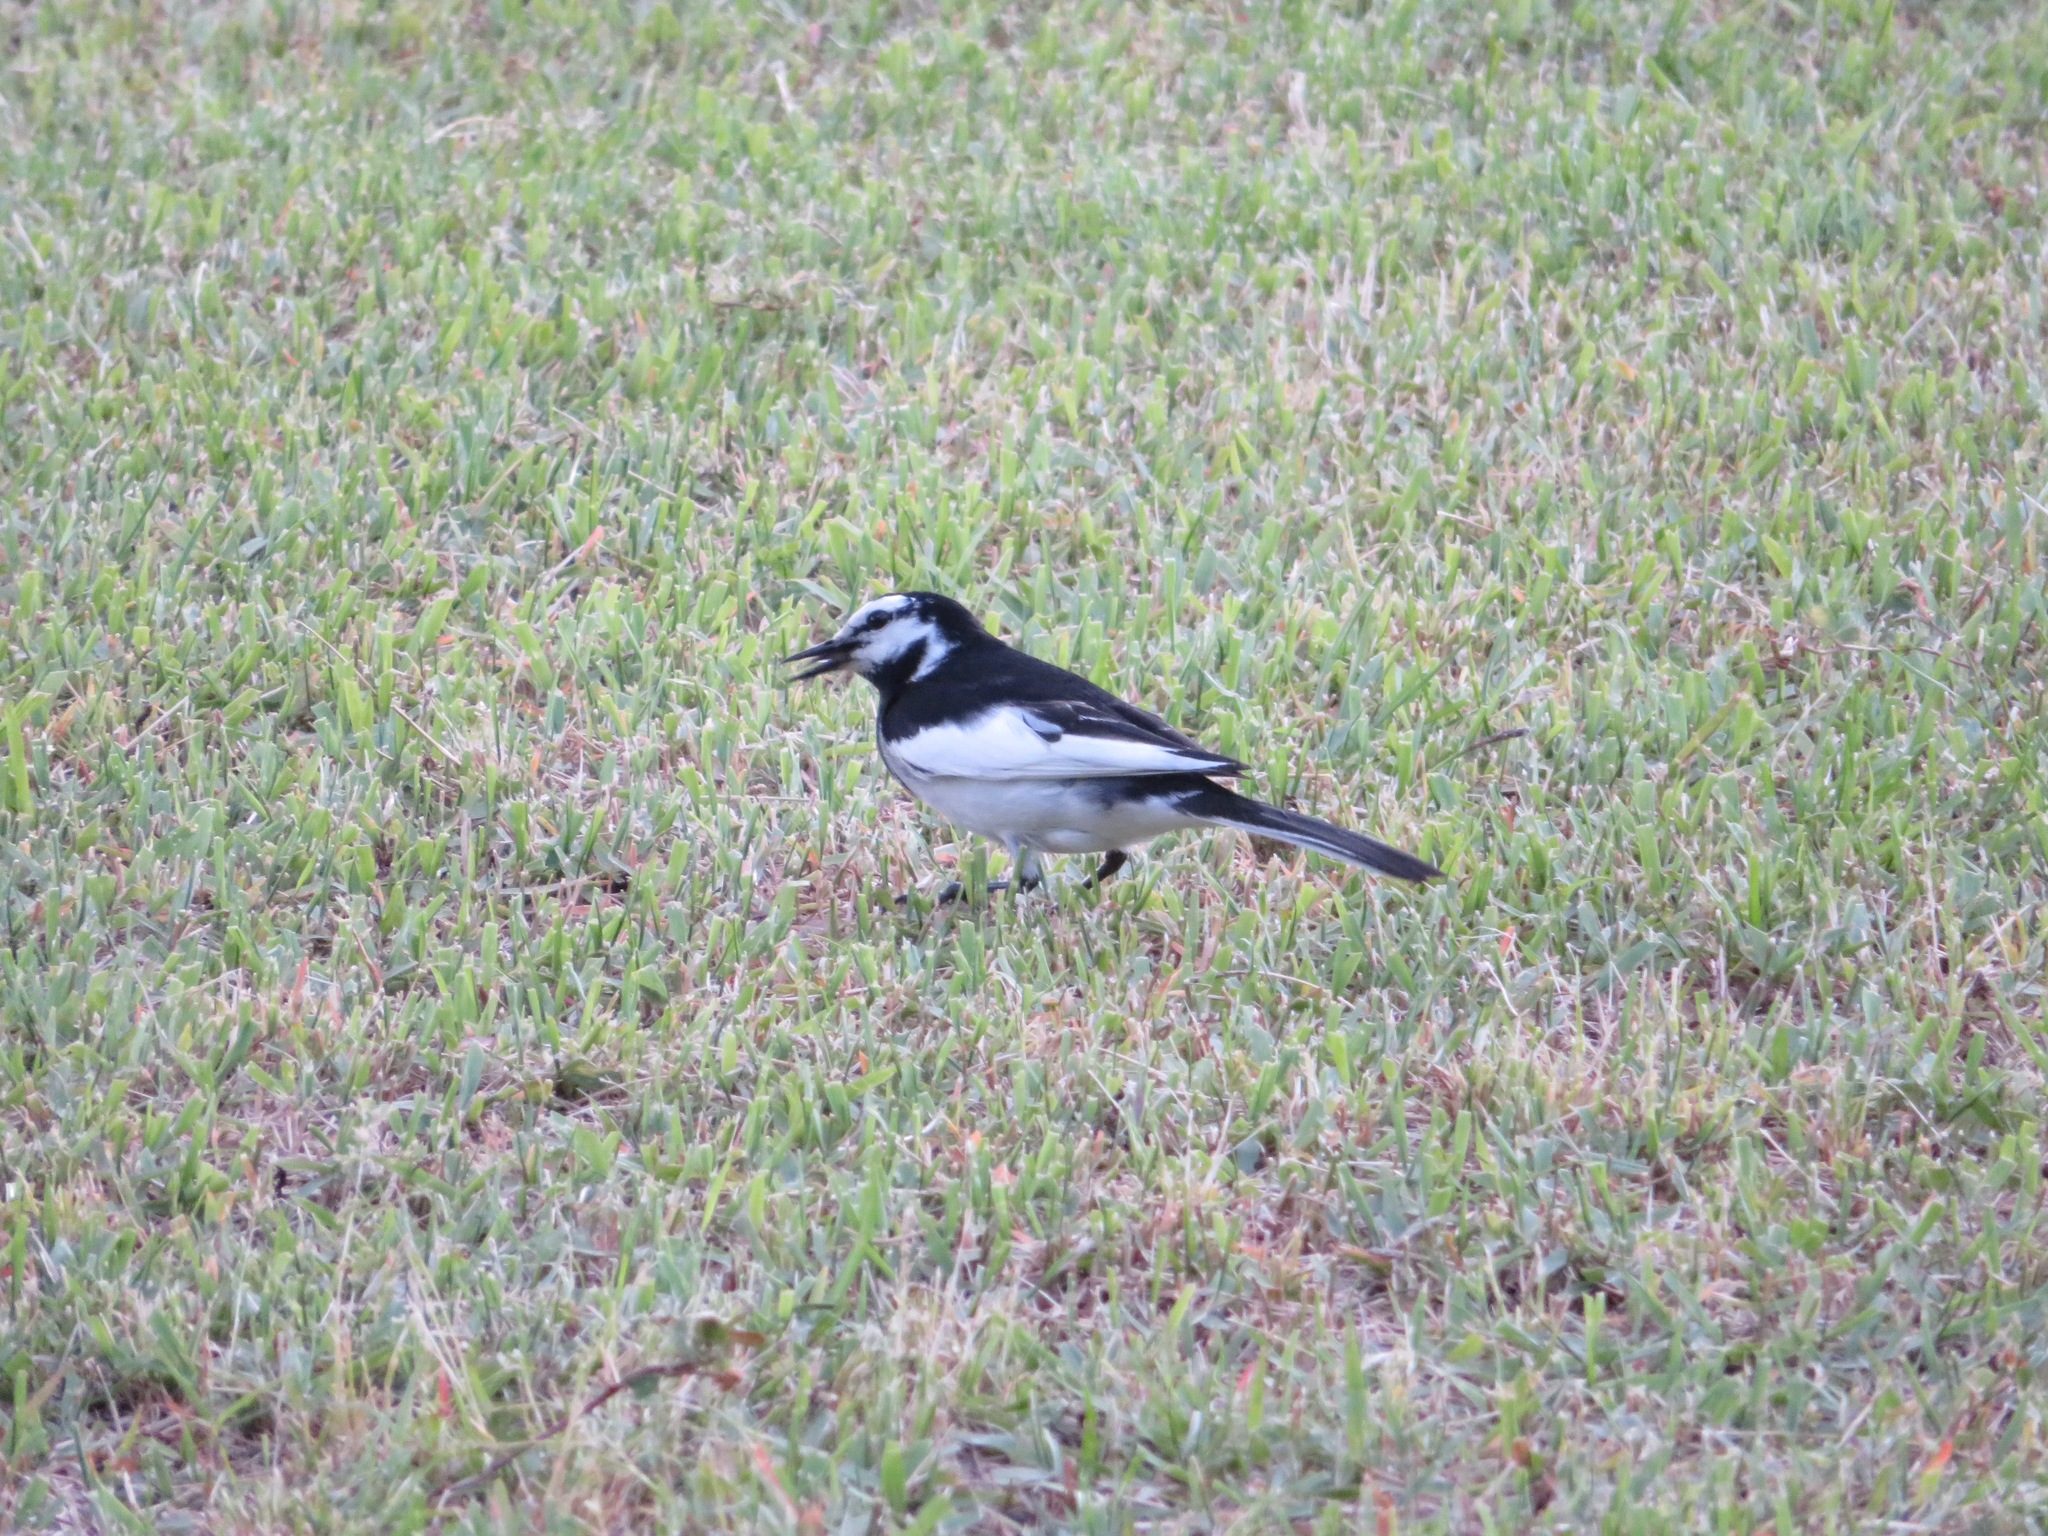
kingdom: Animalia
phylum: Chordata
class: Aves
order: Passeriformes
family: Motacillidae
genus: Motacilla
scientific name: Motacilla alba
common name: White wagtail
